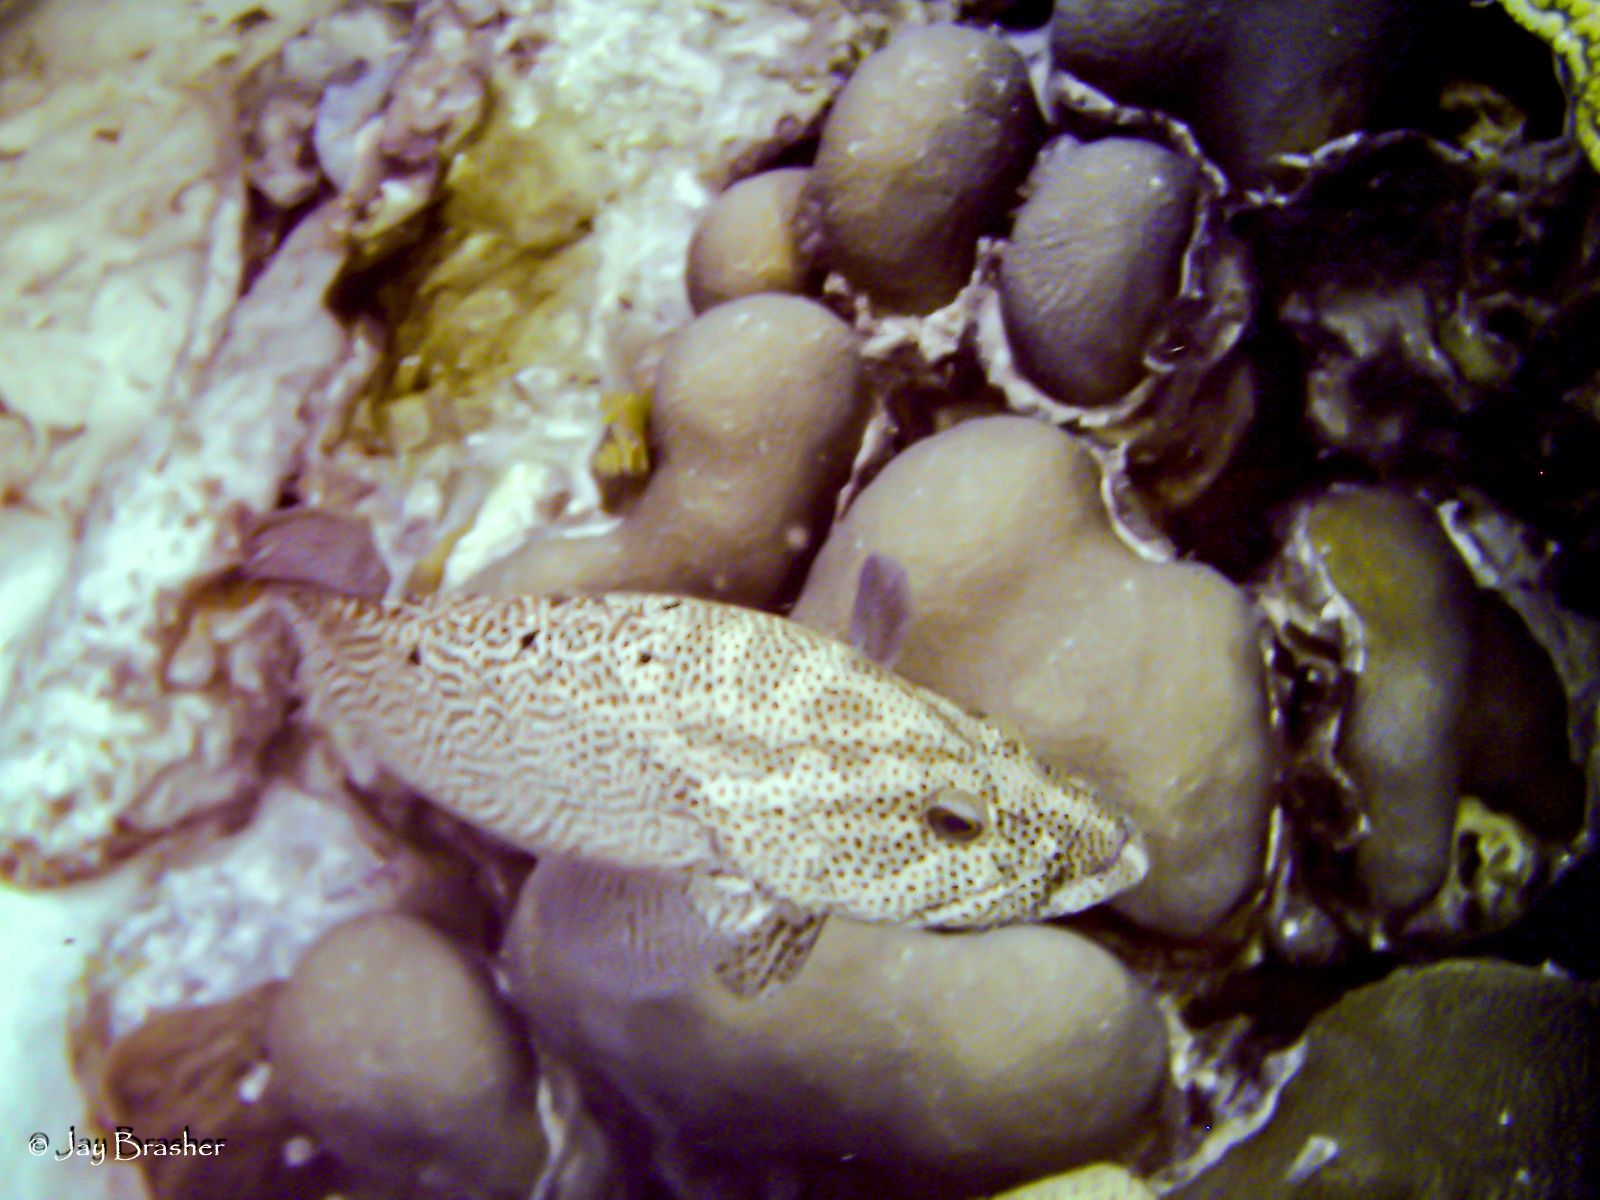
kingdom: Animalia
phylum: Chordata
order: Perciformes
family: Serranidae
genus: Cephalopholis
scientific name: Cephalopholis cruentata
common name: Graysby
